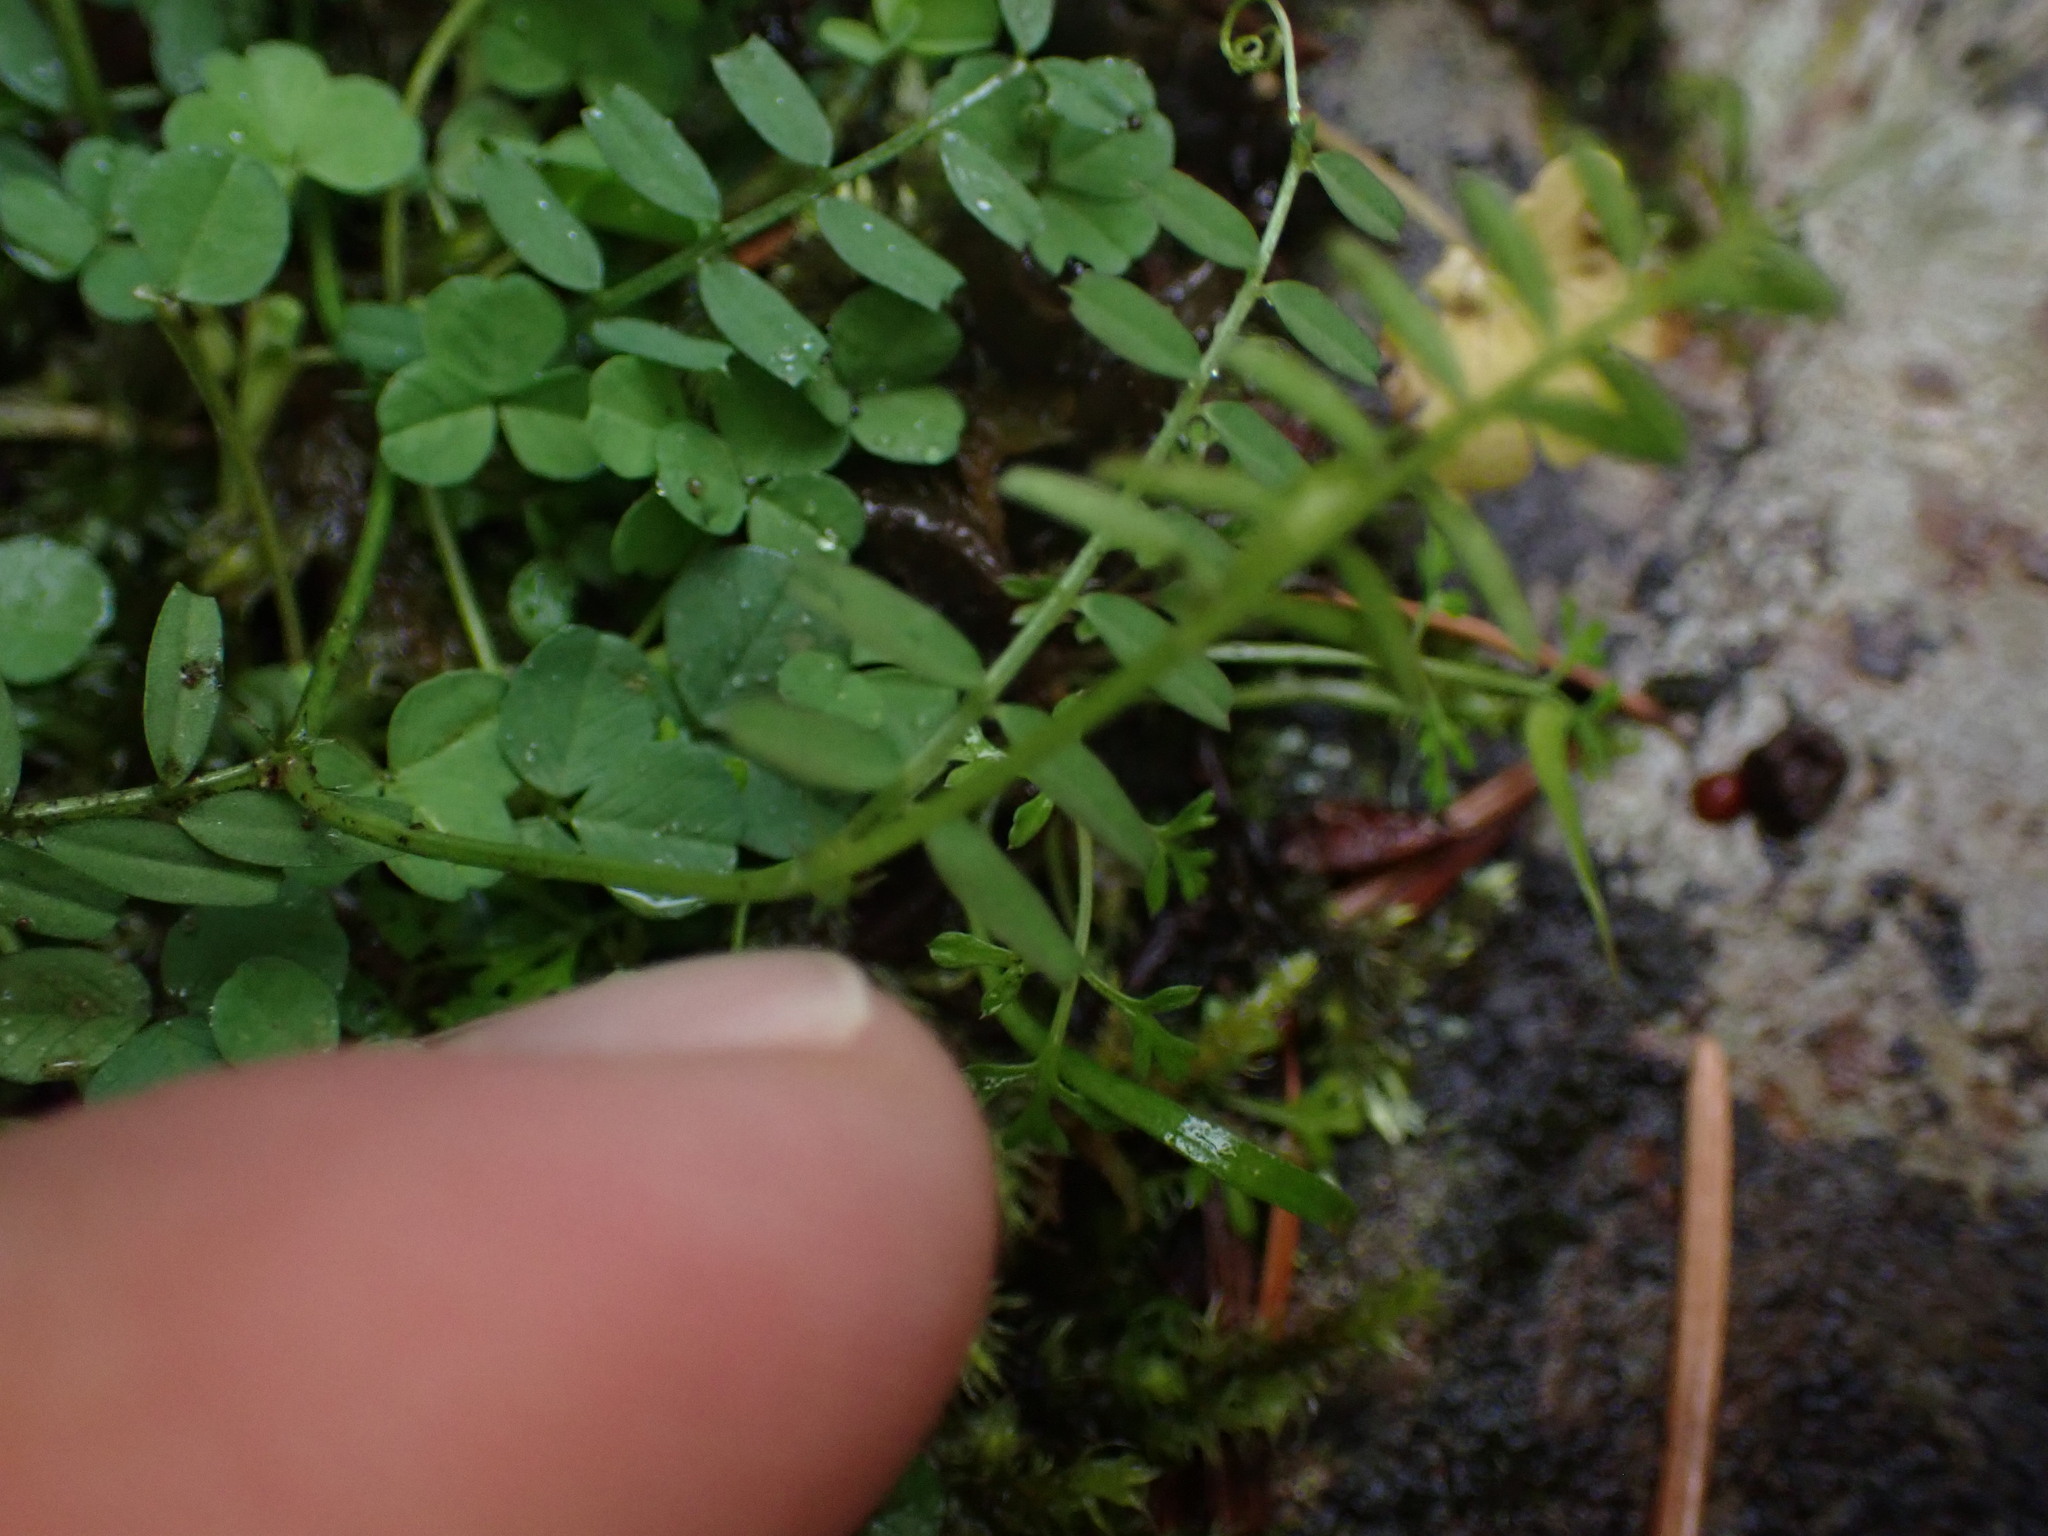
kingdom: Plantae
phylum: Tracheophyta
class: Magnoliopsida
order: Fabales
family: Fabaceae
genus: Vicia
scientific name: Vicia sativa
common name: Garden vetch
